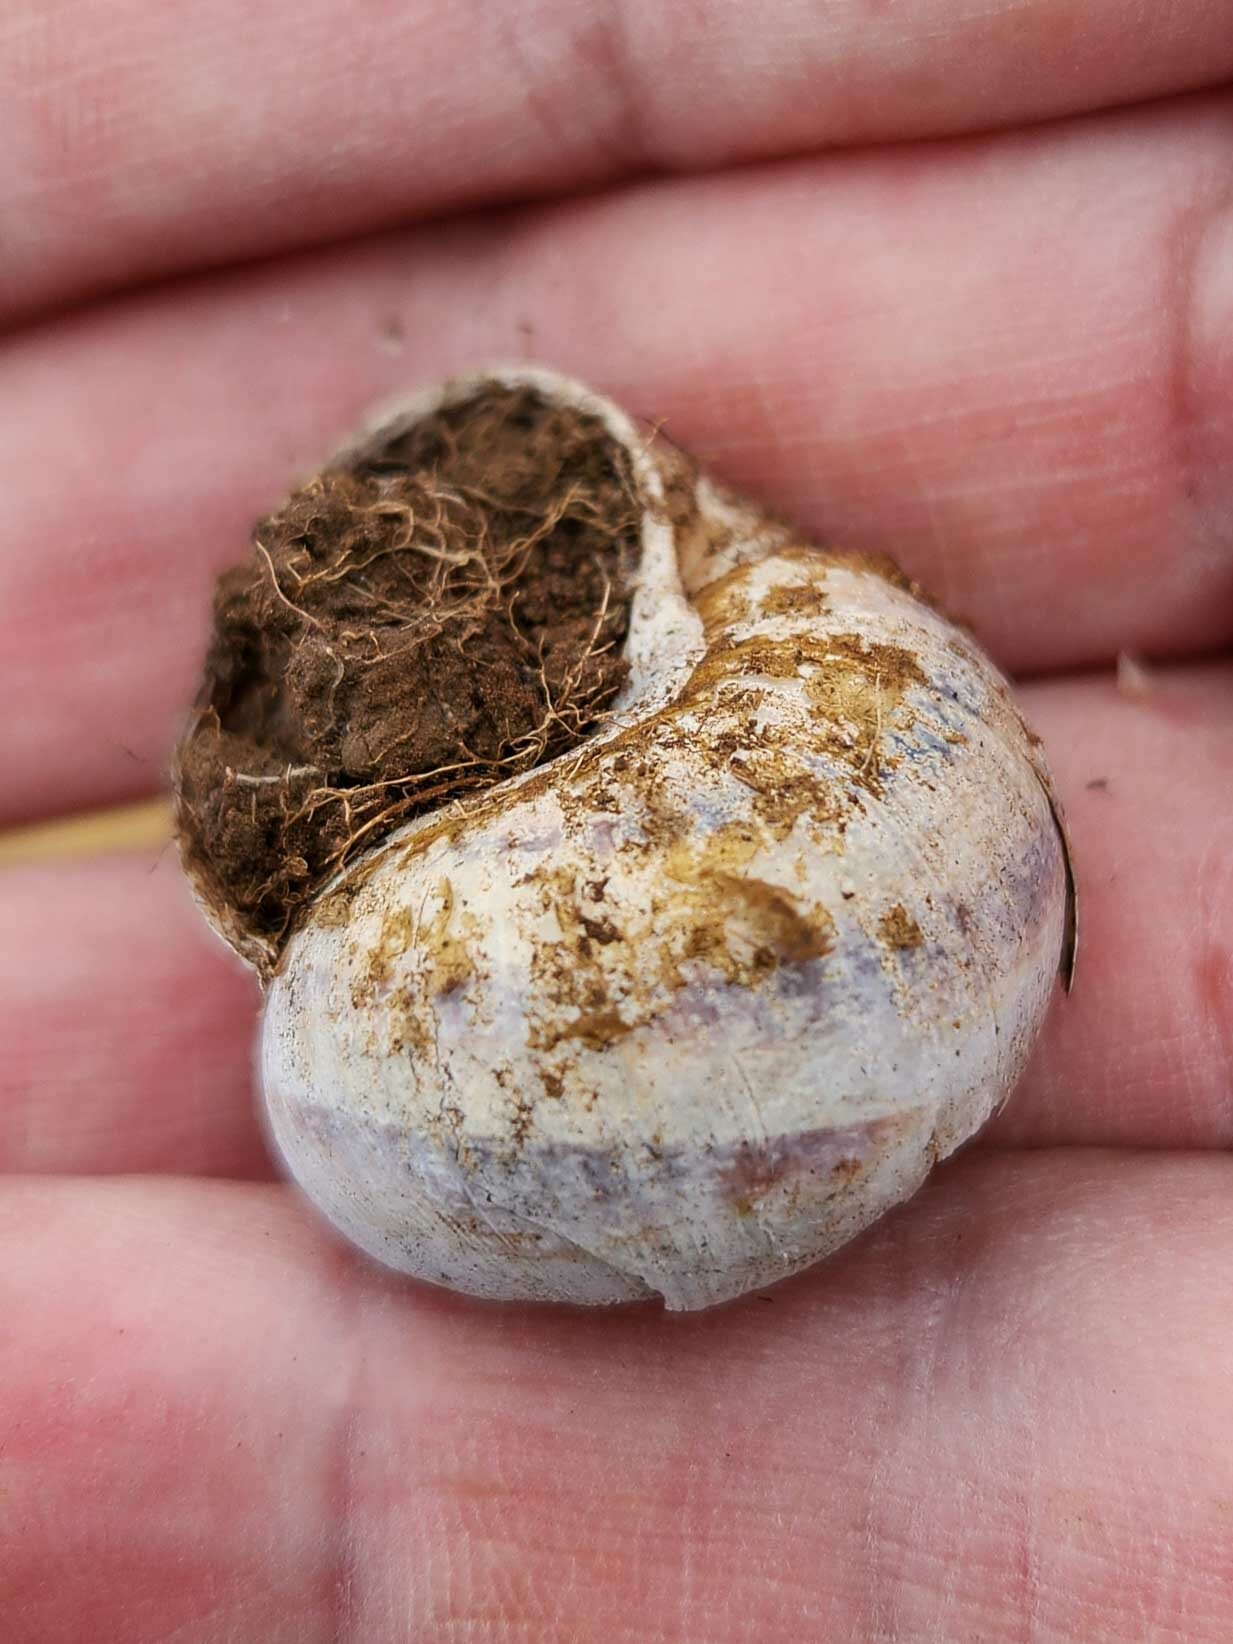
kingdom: Animalia
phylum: Mollusca
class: Gastropoda
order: Stylommatophora
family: Helicidae
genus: Cornu
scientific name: Cornu aspersum
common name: Brown garden snail
